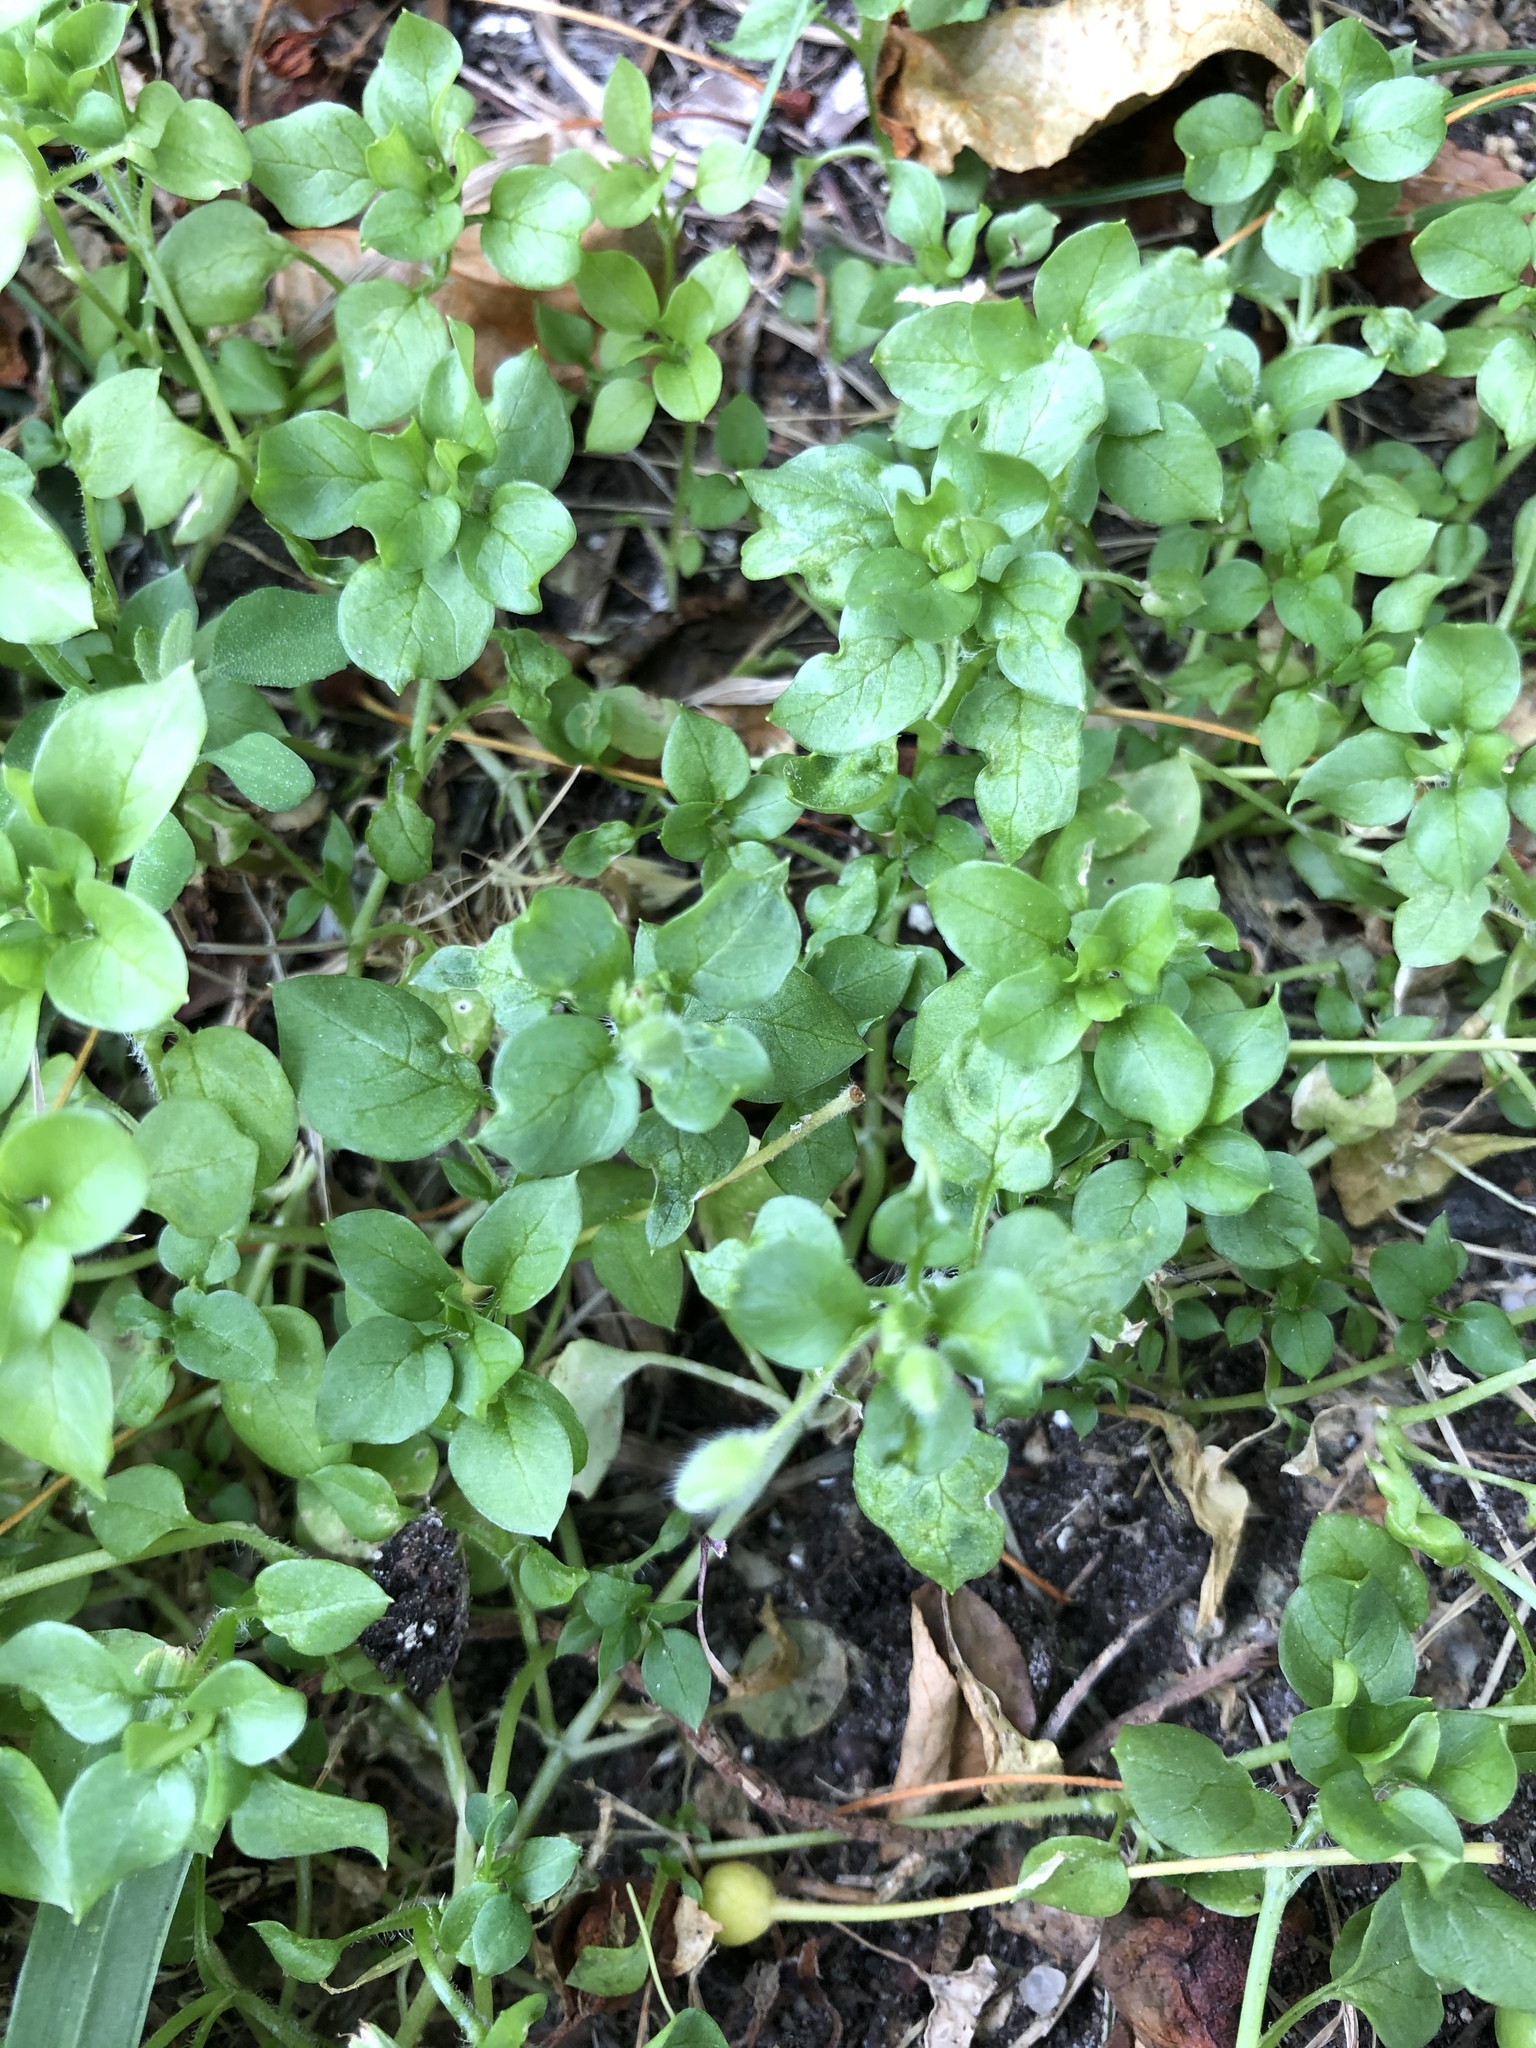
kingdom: Plantae
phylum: Tracheophyta
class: Magnoliopsida
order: Caryophyllales
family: Caryophyllaceae
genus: Stellaria
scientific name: Stellaria media
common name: Common chickweed
